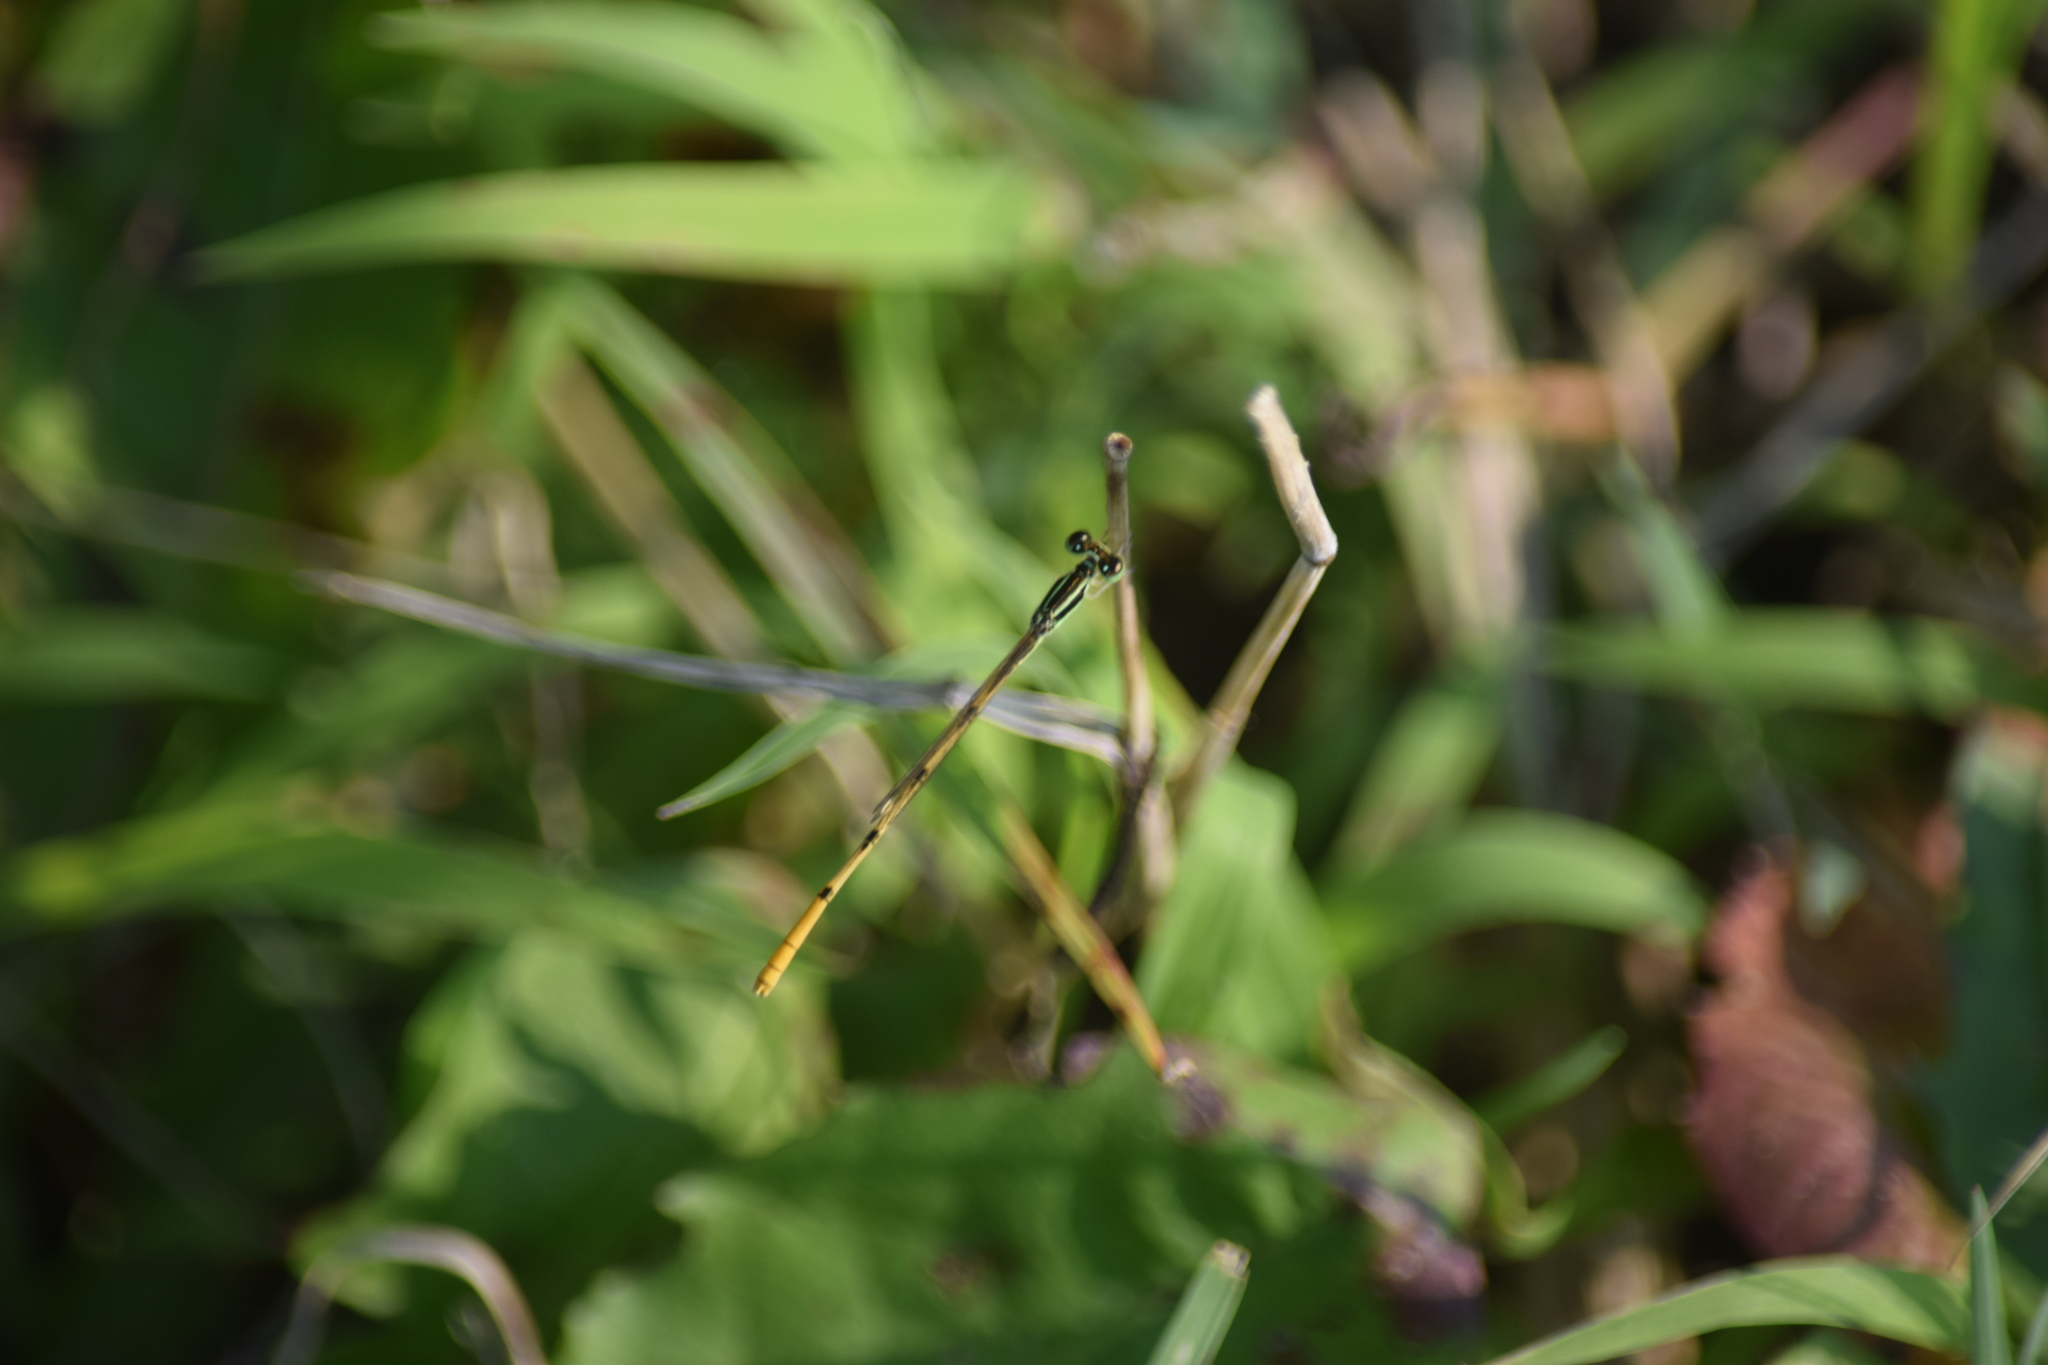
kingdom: Animalia
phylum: Arthropoda
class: Insecta
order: Odonata
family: Coenagrionidae
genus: Ischnura
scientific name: Ischnura hastata
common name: Citrine forktail
